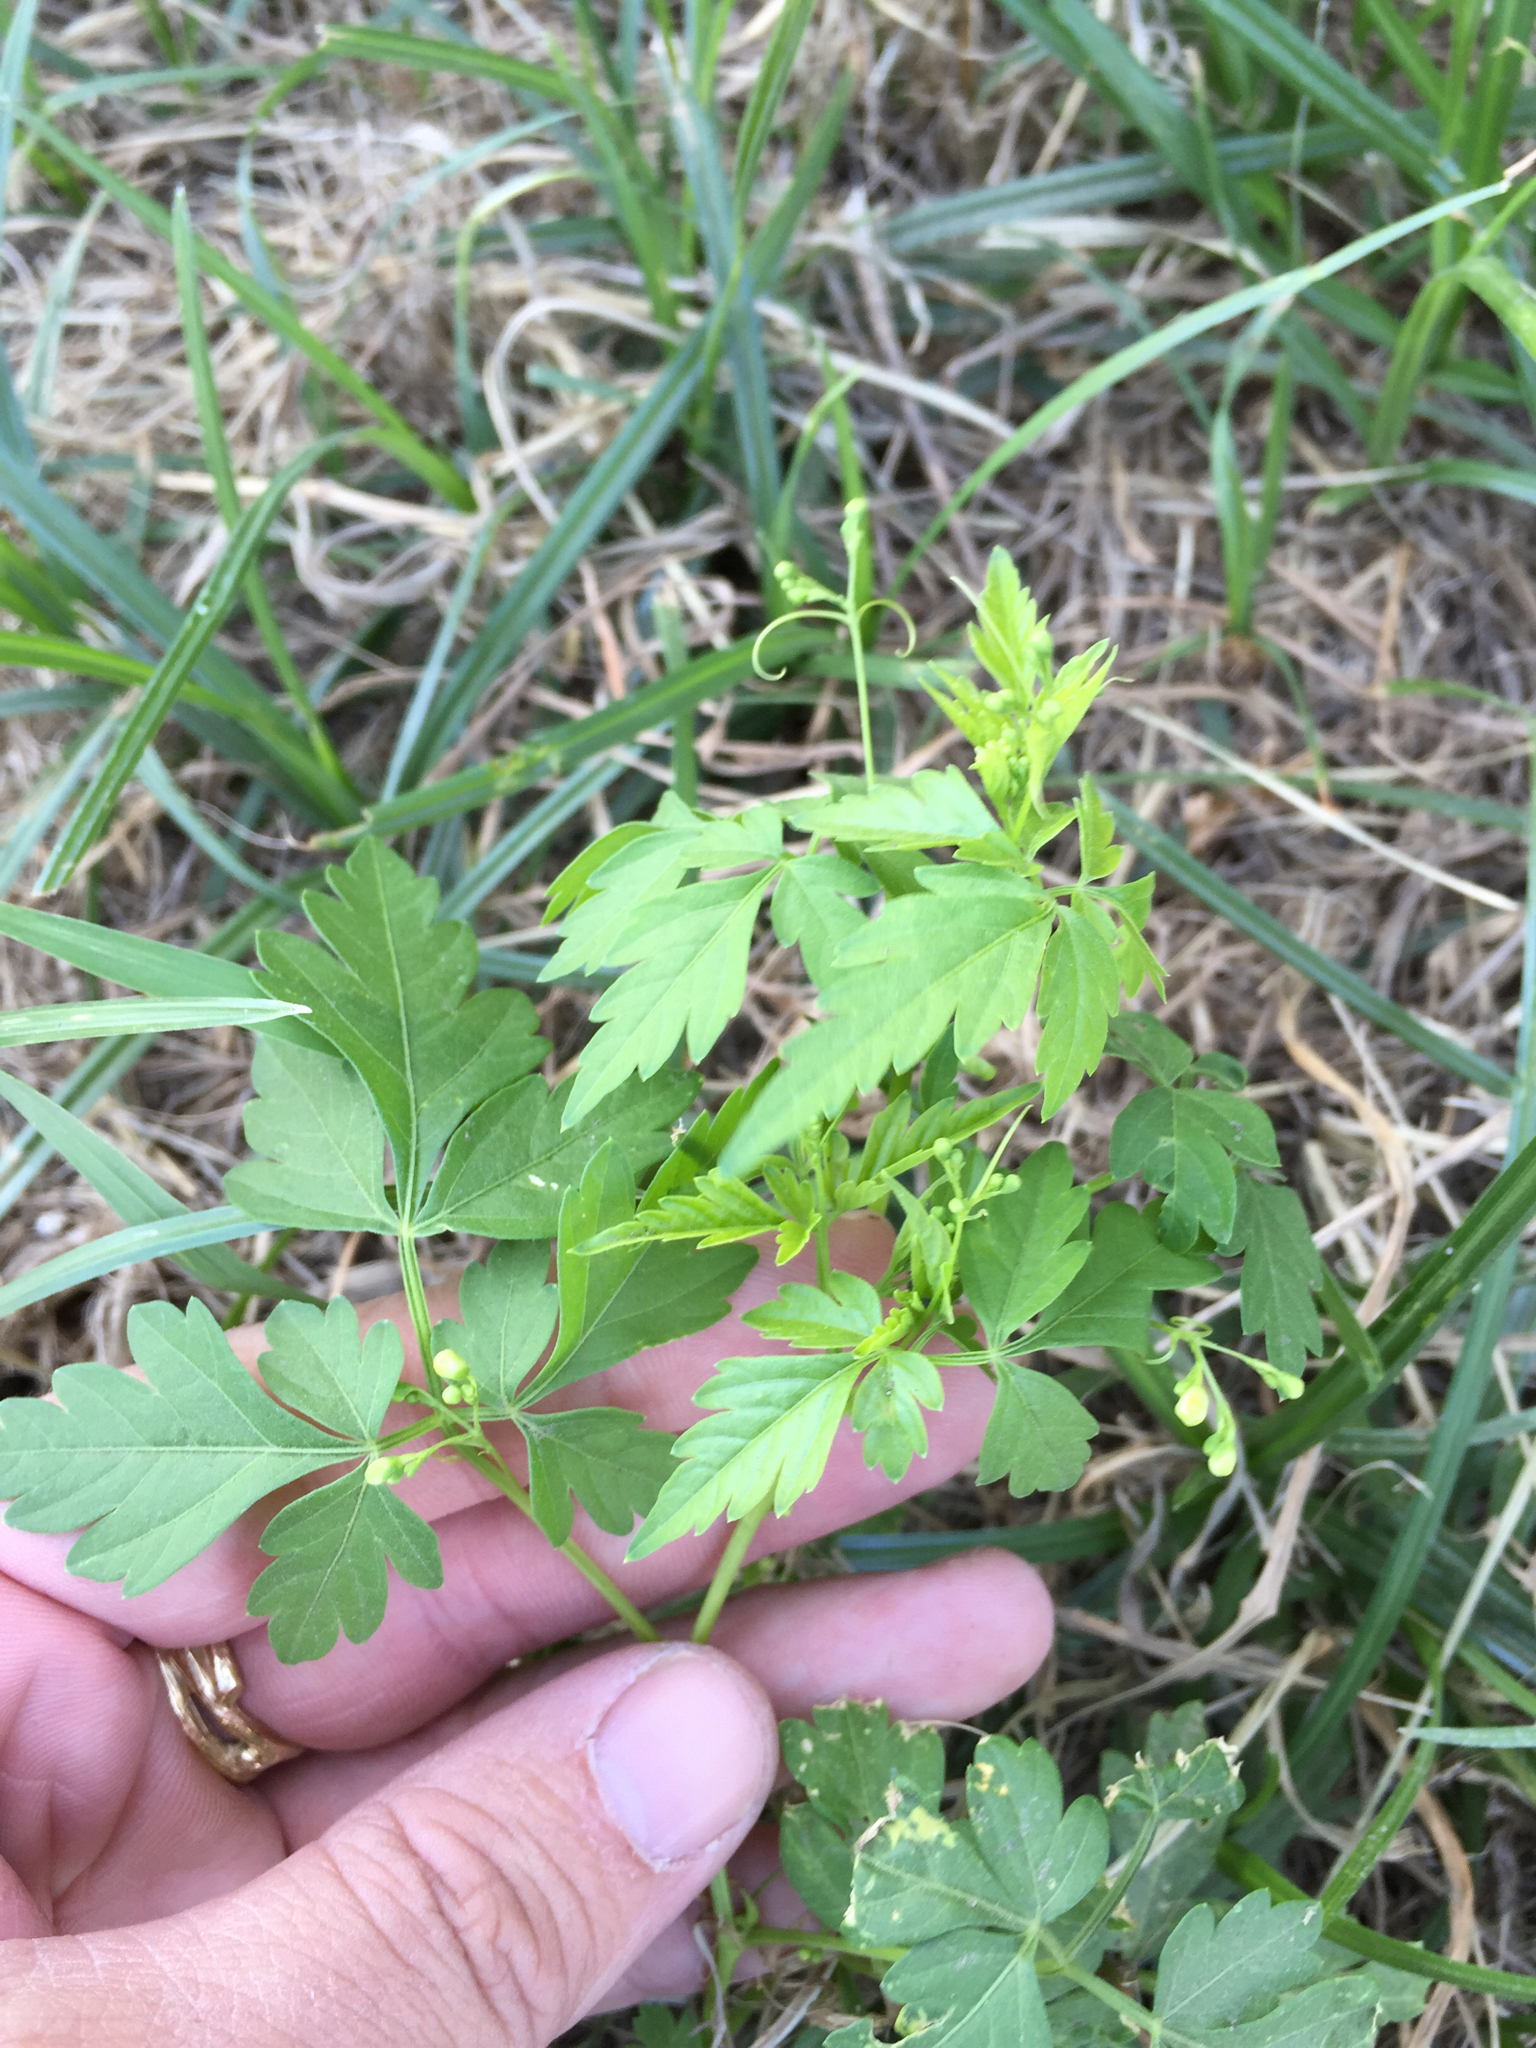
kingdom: Plantae
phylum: Tracheophyta
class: Magnoliopsida
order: Sapindales
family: Sapindaceae
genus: Cardiospermum
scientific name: Cardiospermum halicacabum
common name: Balloon vine
